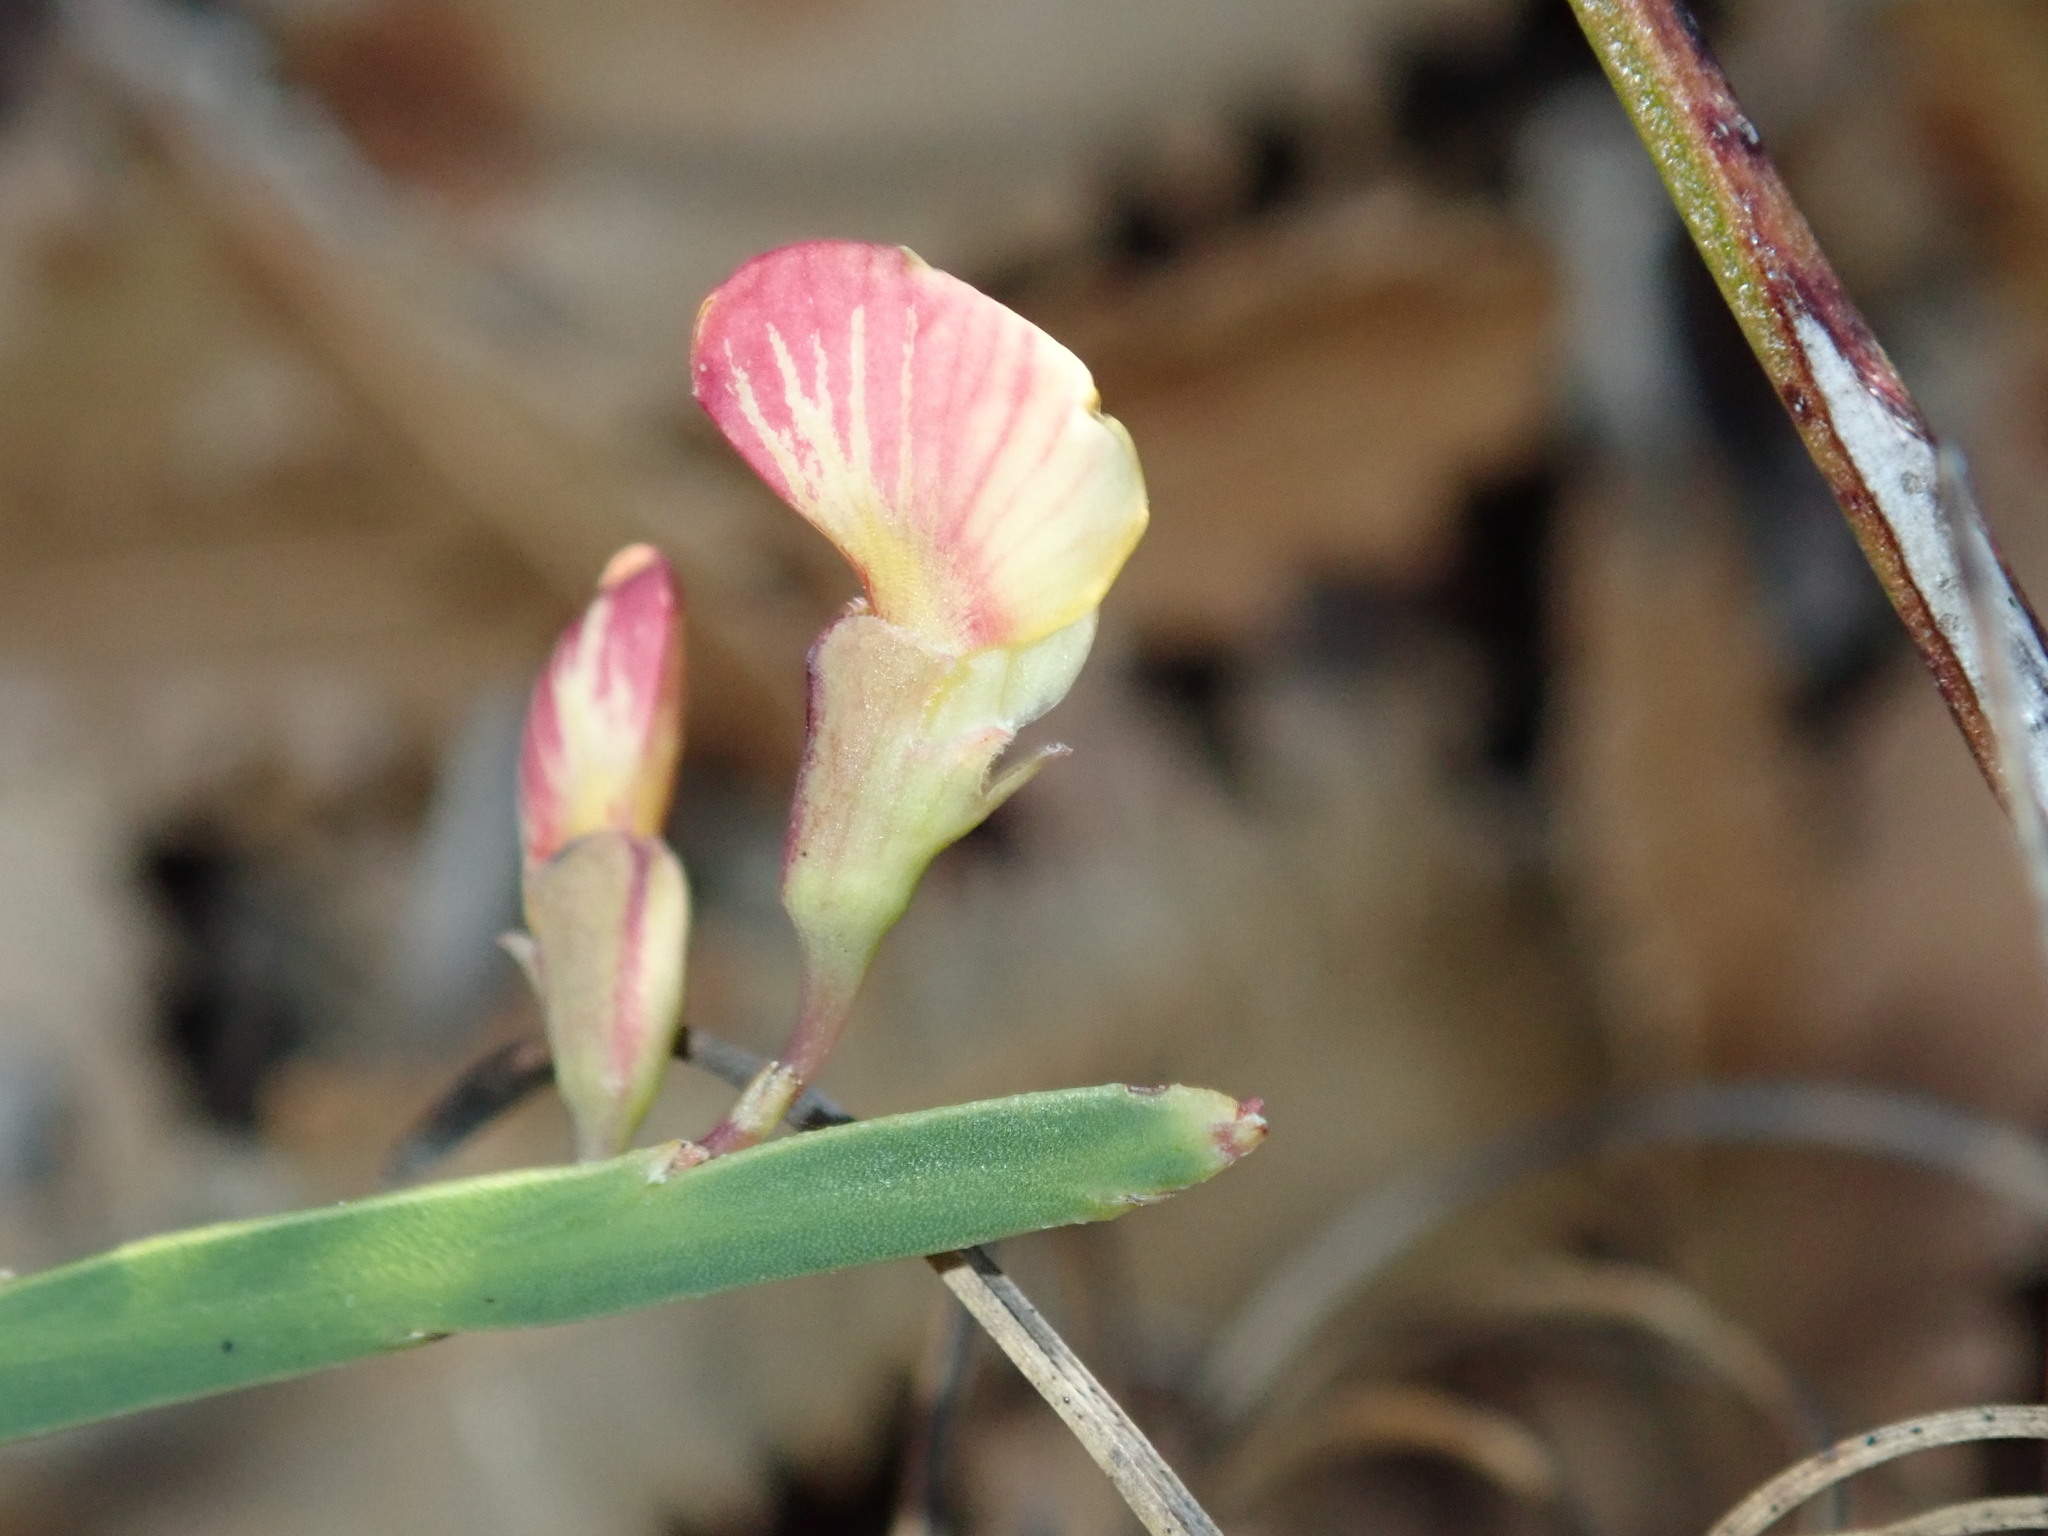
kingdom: Plantae
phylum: Tracheophyta
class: Magnoliopsida
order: Fabales
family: Fabaceae
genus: Bossiaea
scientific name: Bossiaea ensata
